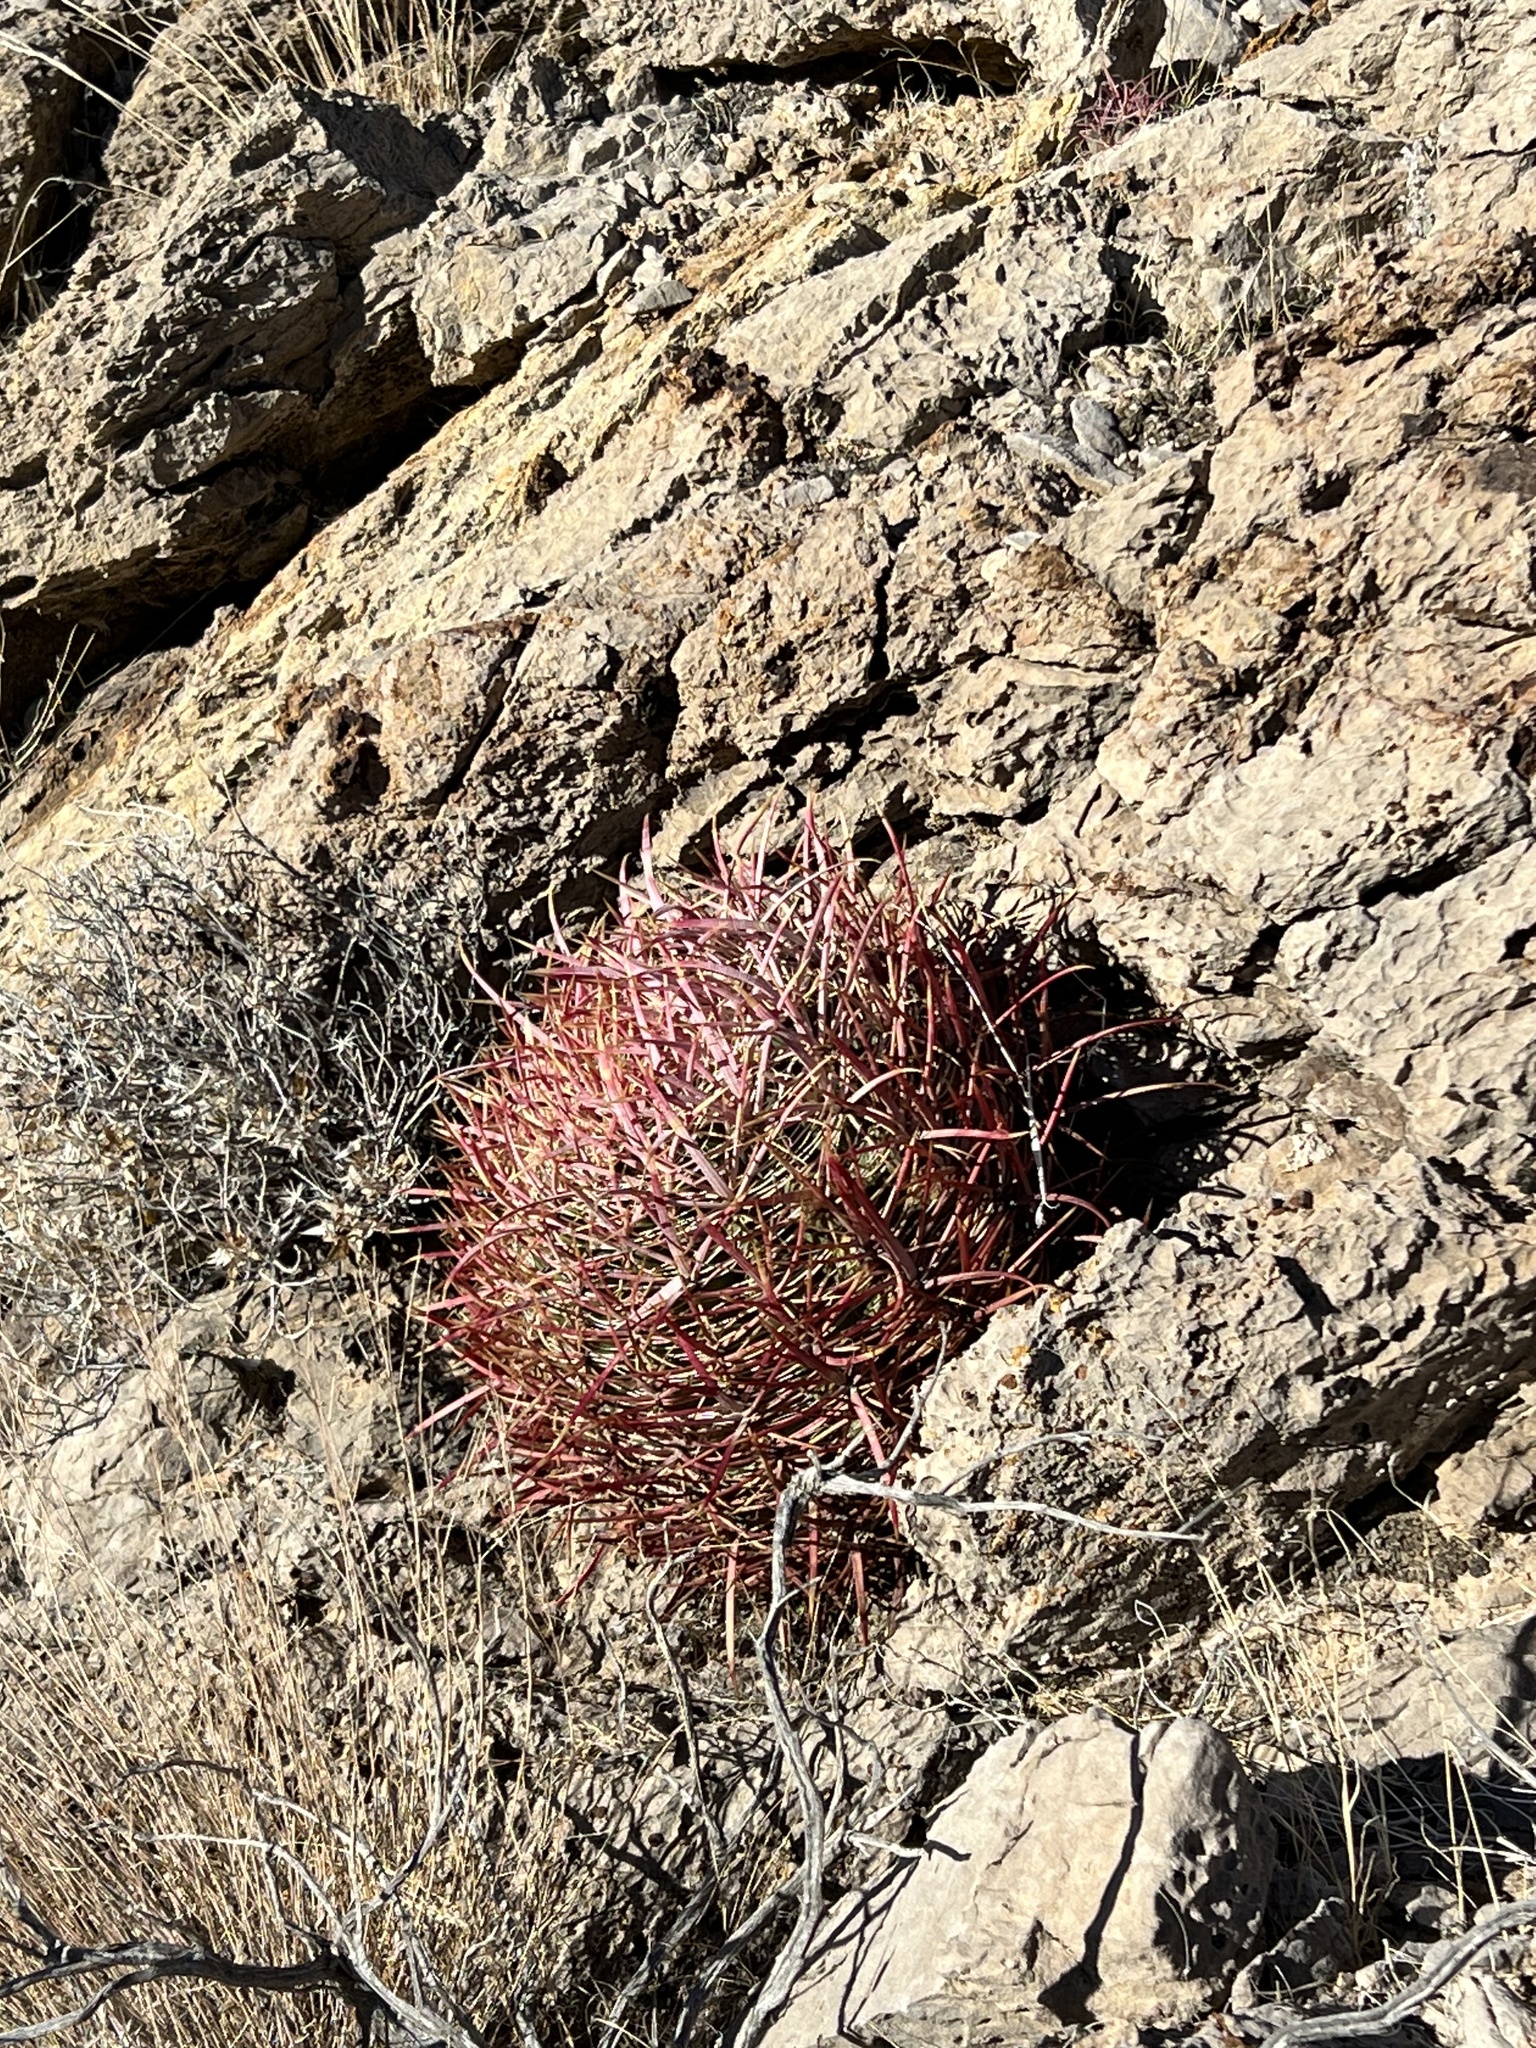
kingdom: Plantae
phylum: Tracheophyta
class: Magnoliopsida
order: Caryophyllales
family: Cactaceae
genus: Ferocactus
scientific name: Ferocactus cylindraceus
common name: California barrel cactus
